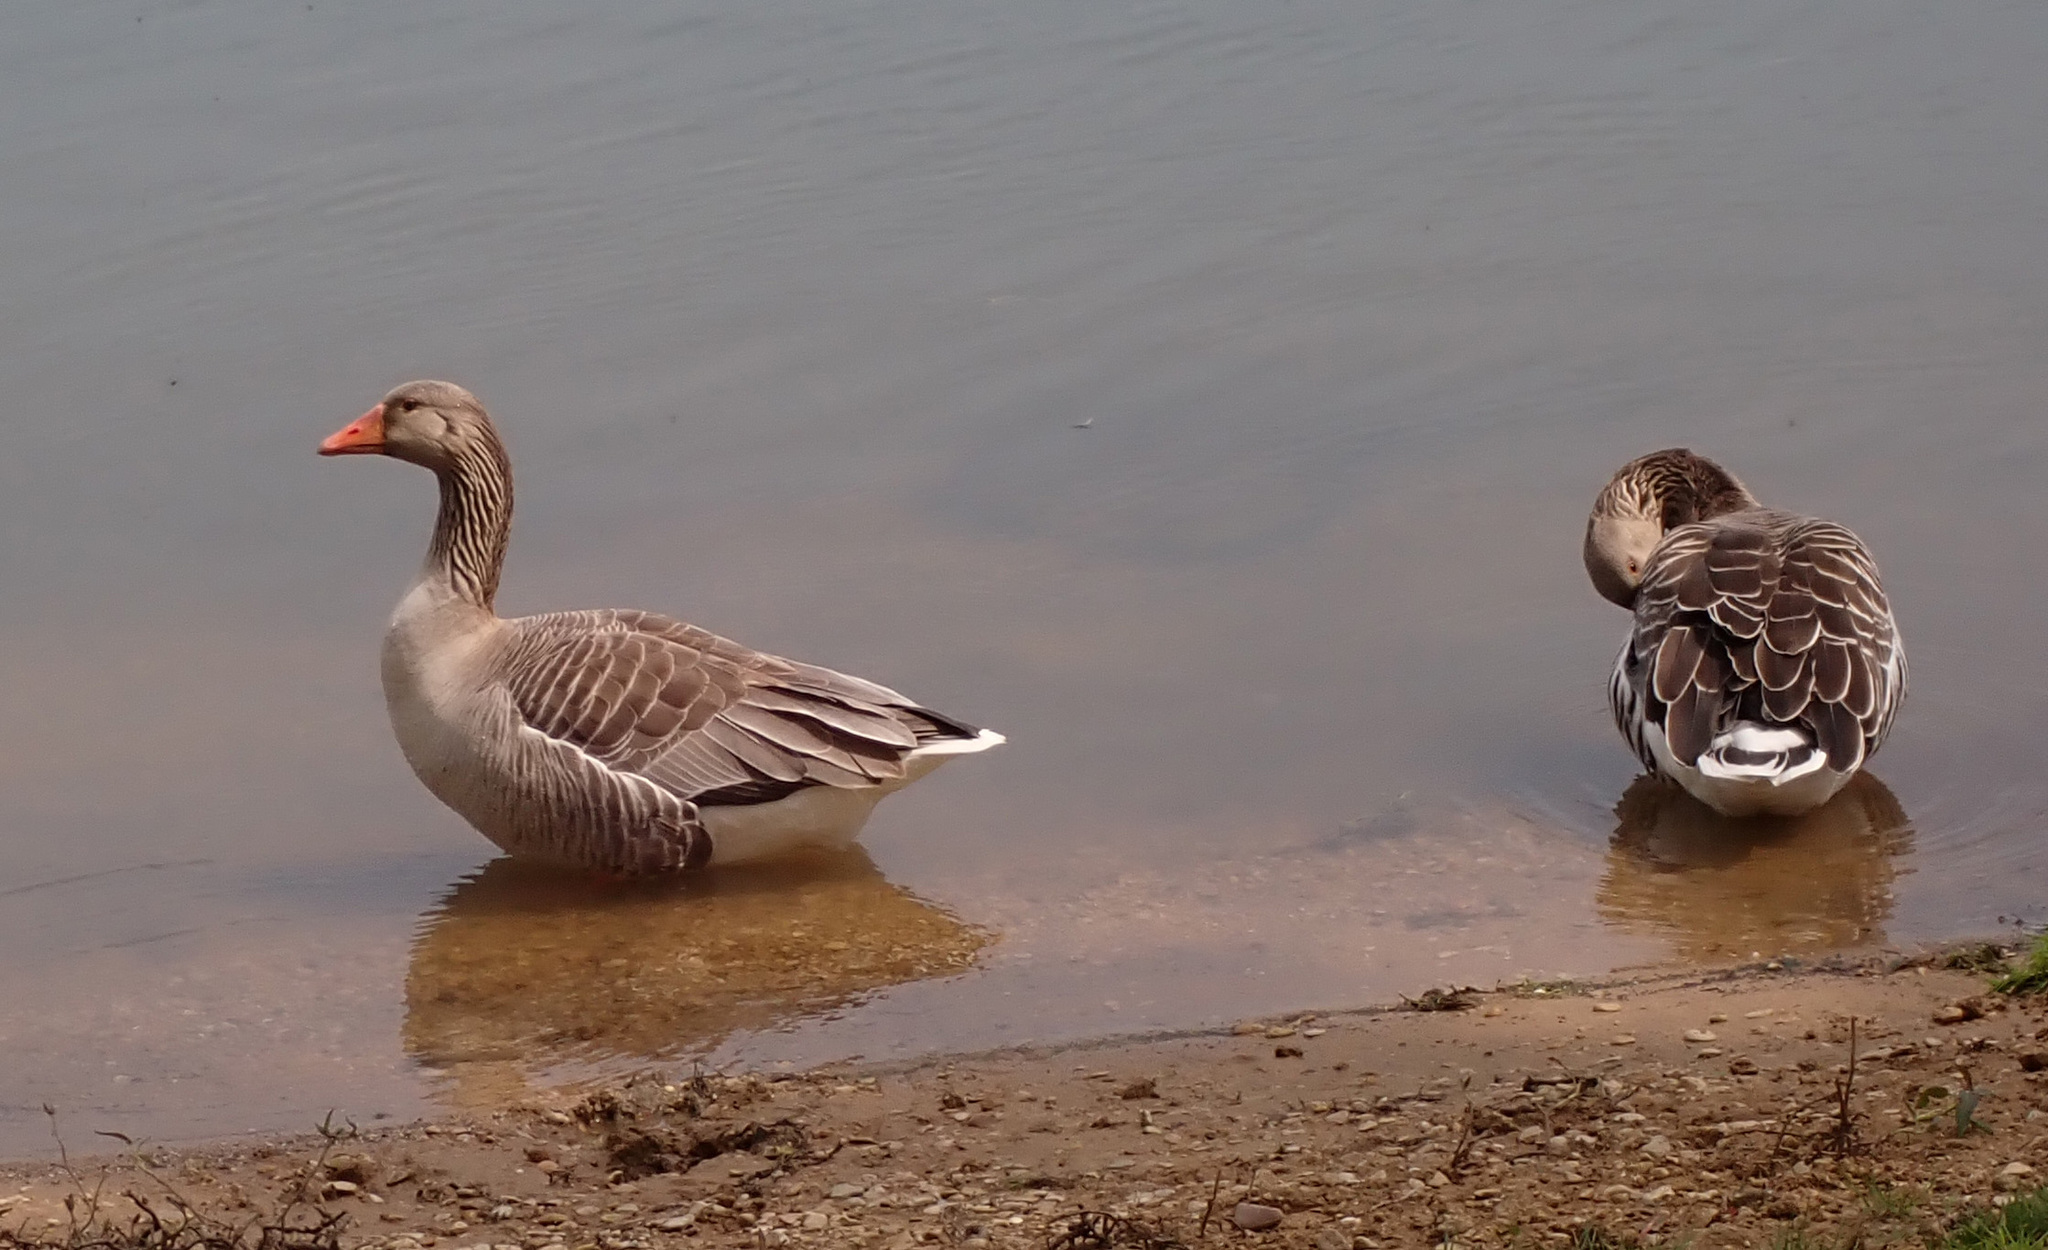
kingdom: Animalia
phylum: Chordata
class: Aves
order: Anseriformes
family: Anatidae
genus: Anser
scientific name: Anser anser
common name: Greylag goose
